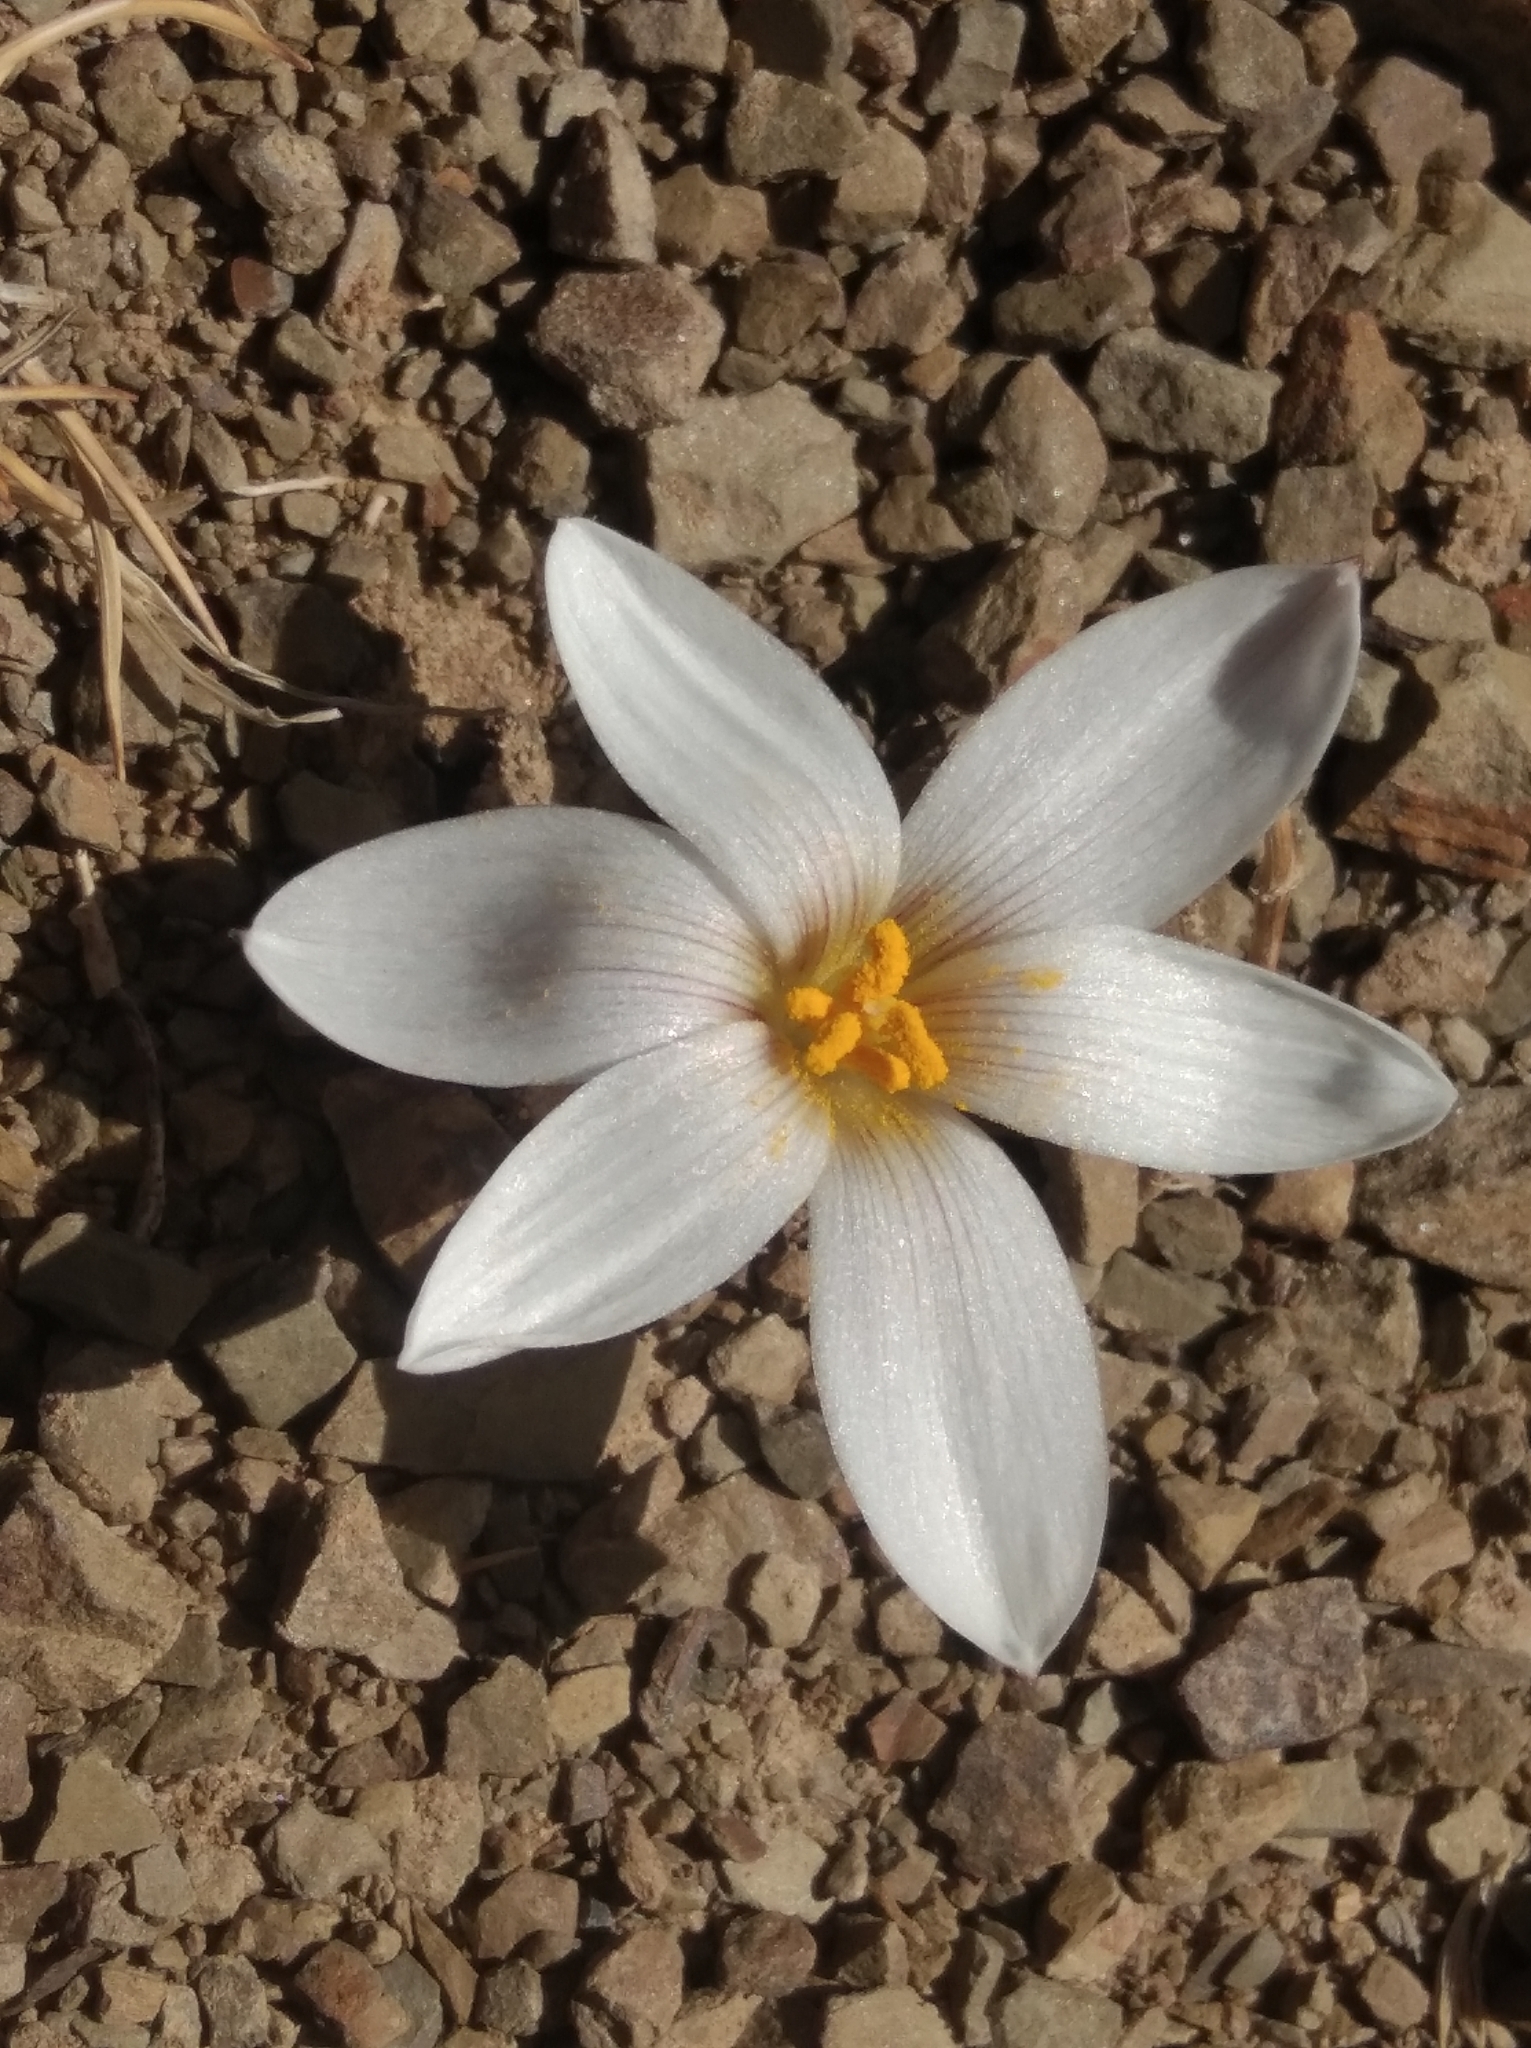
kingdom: Plantae
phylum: Tracheophyta
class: Liliopsida
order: Asparagales
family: Amaryllidaceae
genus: Zephyranthes
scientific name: Zephyranthes andina
